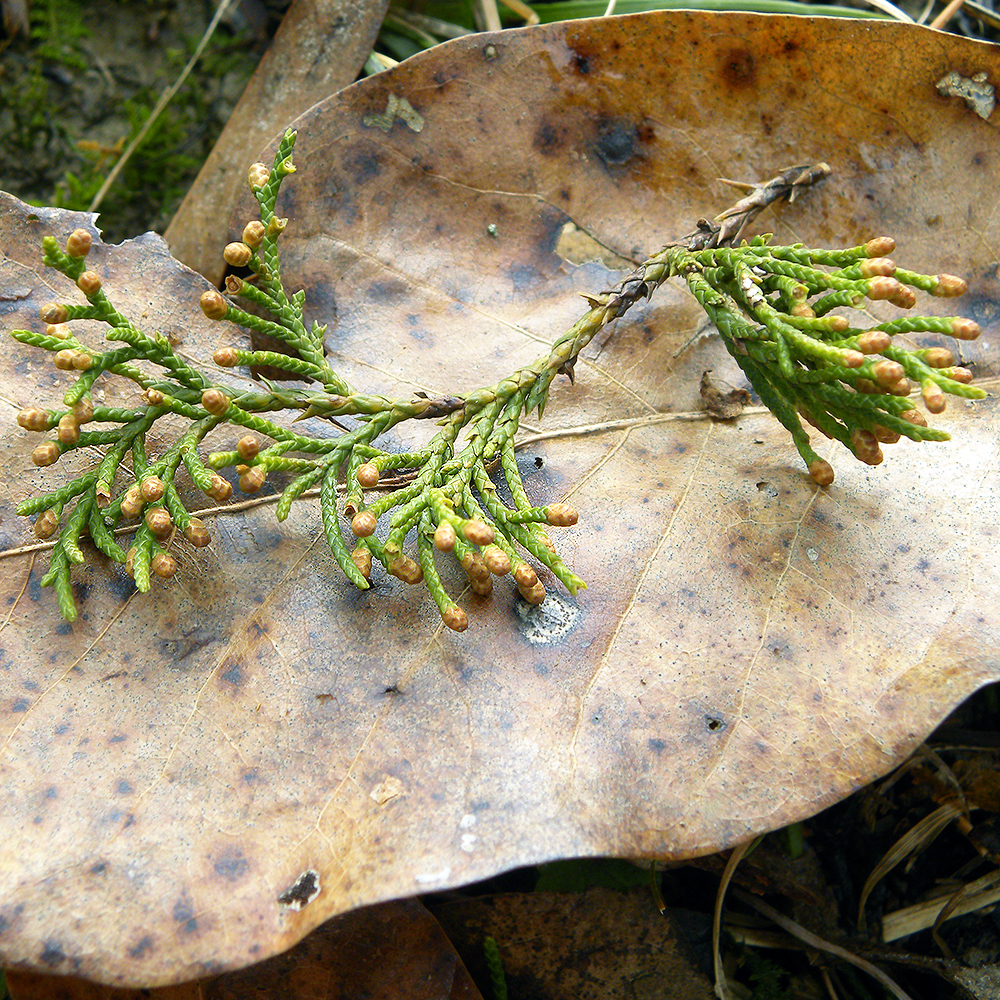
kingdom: Plantae
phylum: Tracheophyta
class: Pinopsida
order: Pinales
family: Cupressaceae
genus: Juniperus
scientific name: Juniperus virginiana
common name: Red juniper
